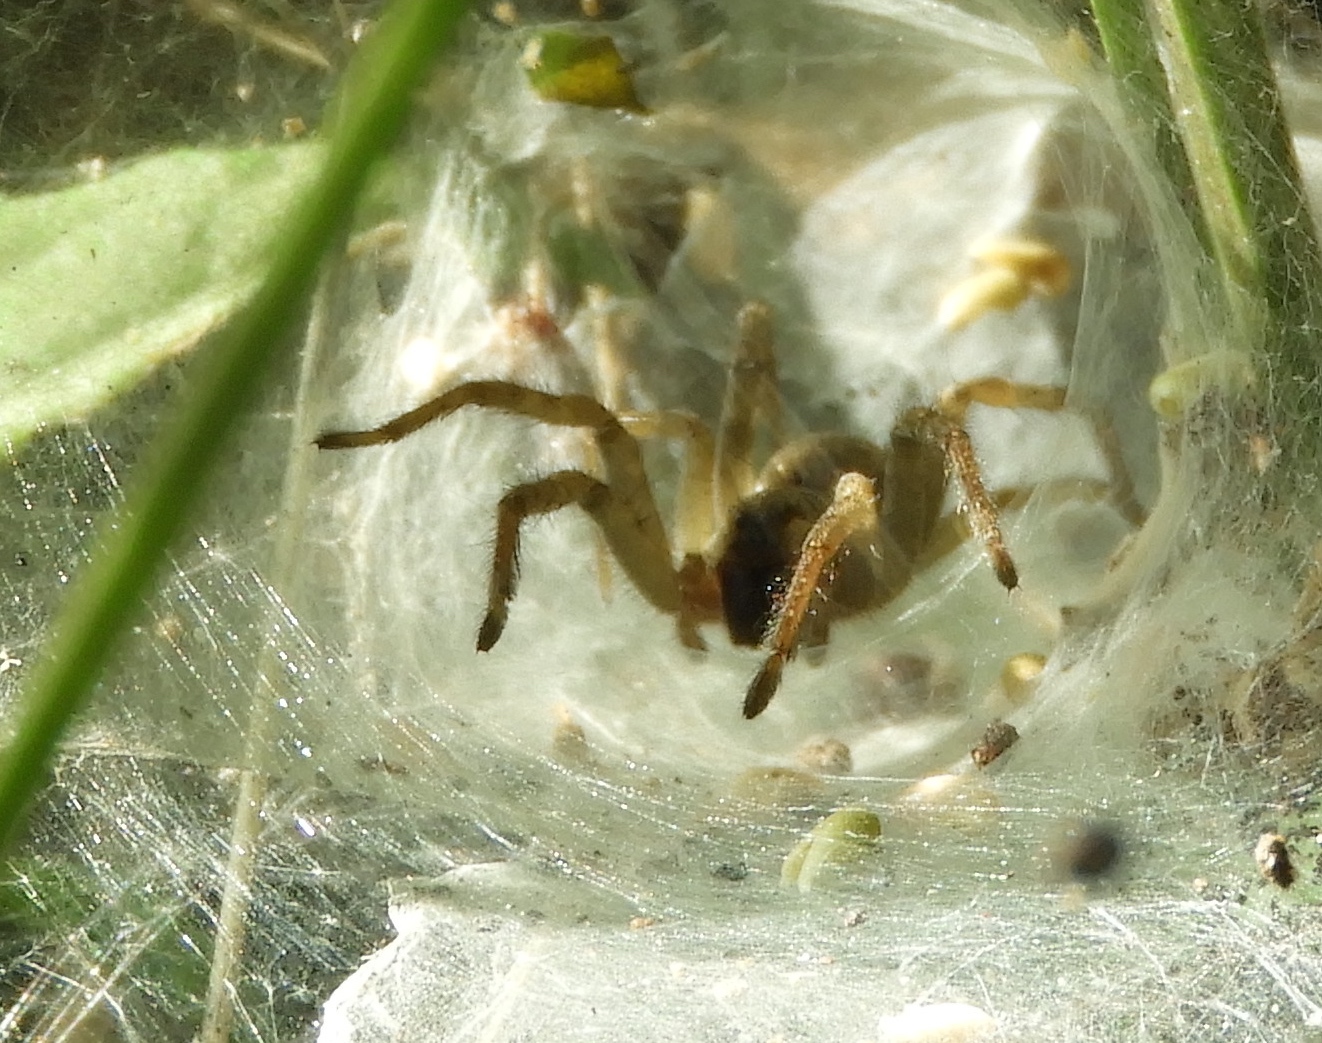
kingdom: Animalia
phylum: Arthropoda
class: Arachnida
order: Araneae
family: Lycosidae
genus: Sosippus
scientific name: Sosippus
